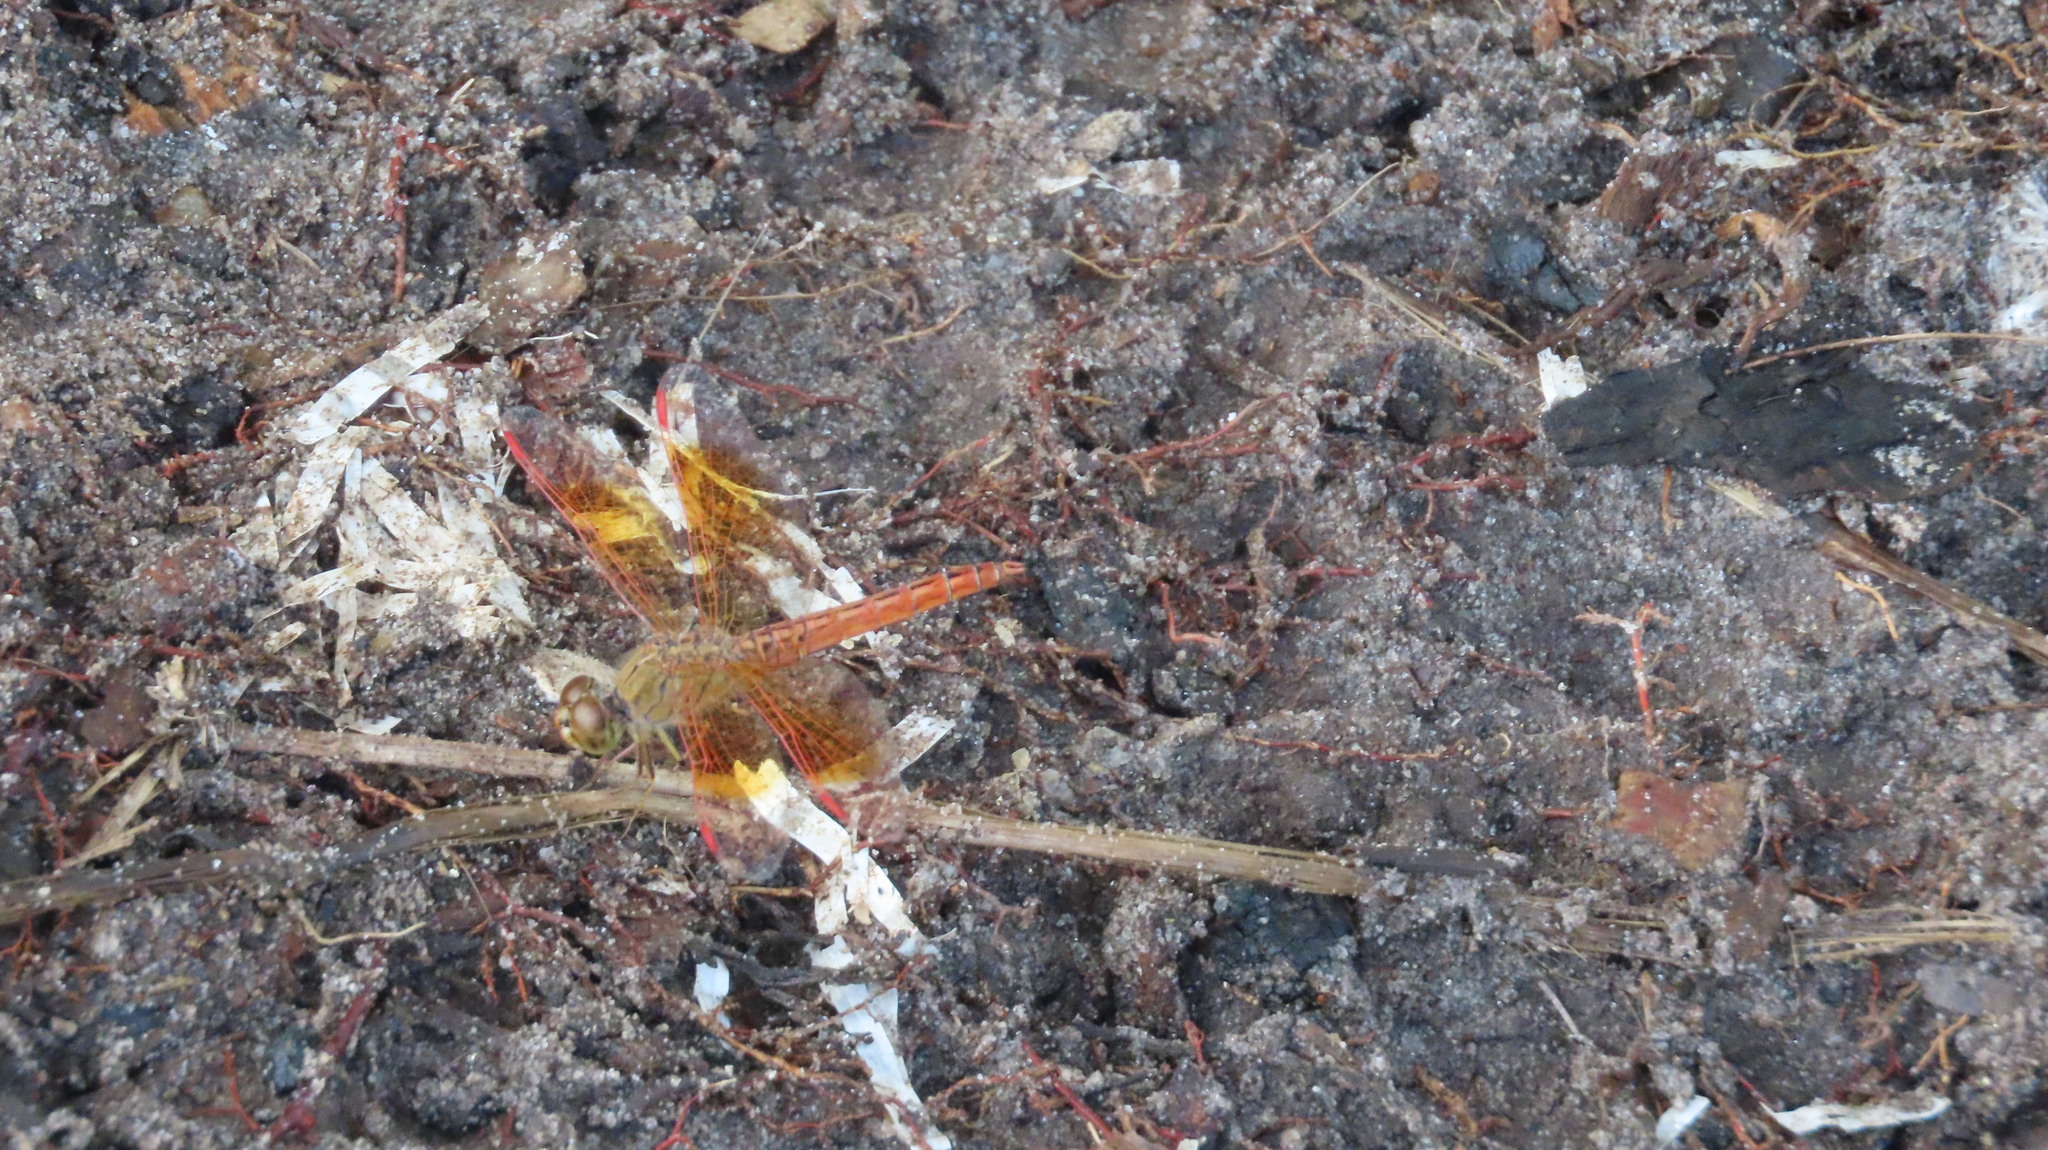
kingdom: Animalia
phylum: Arthropoda
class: Insecta
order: Odonata
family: Libellulidae
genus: Brachythemis
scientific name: Brachythemis contaminata
